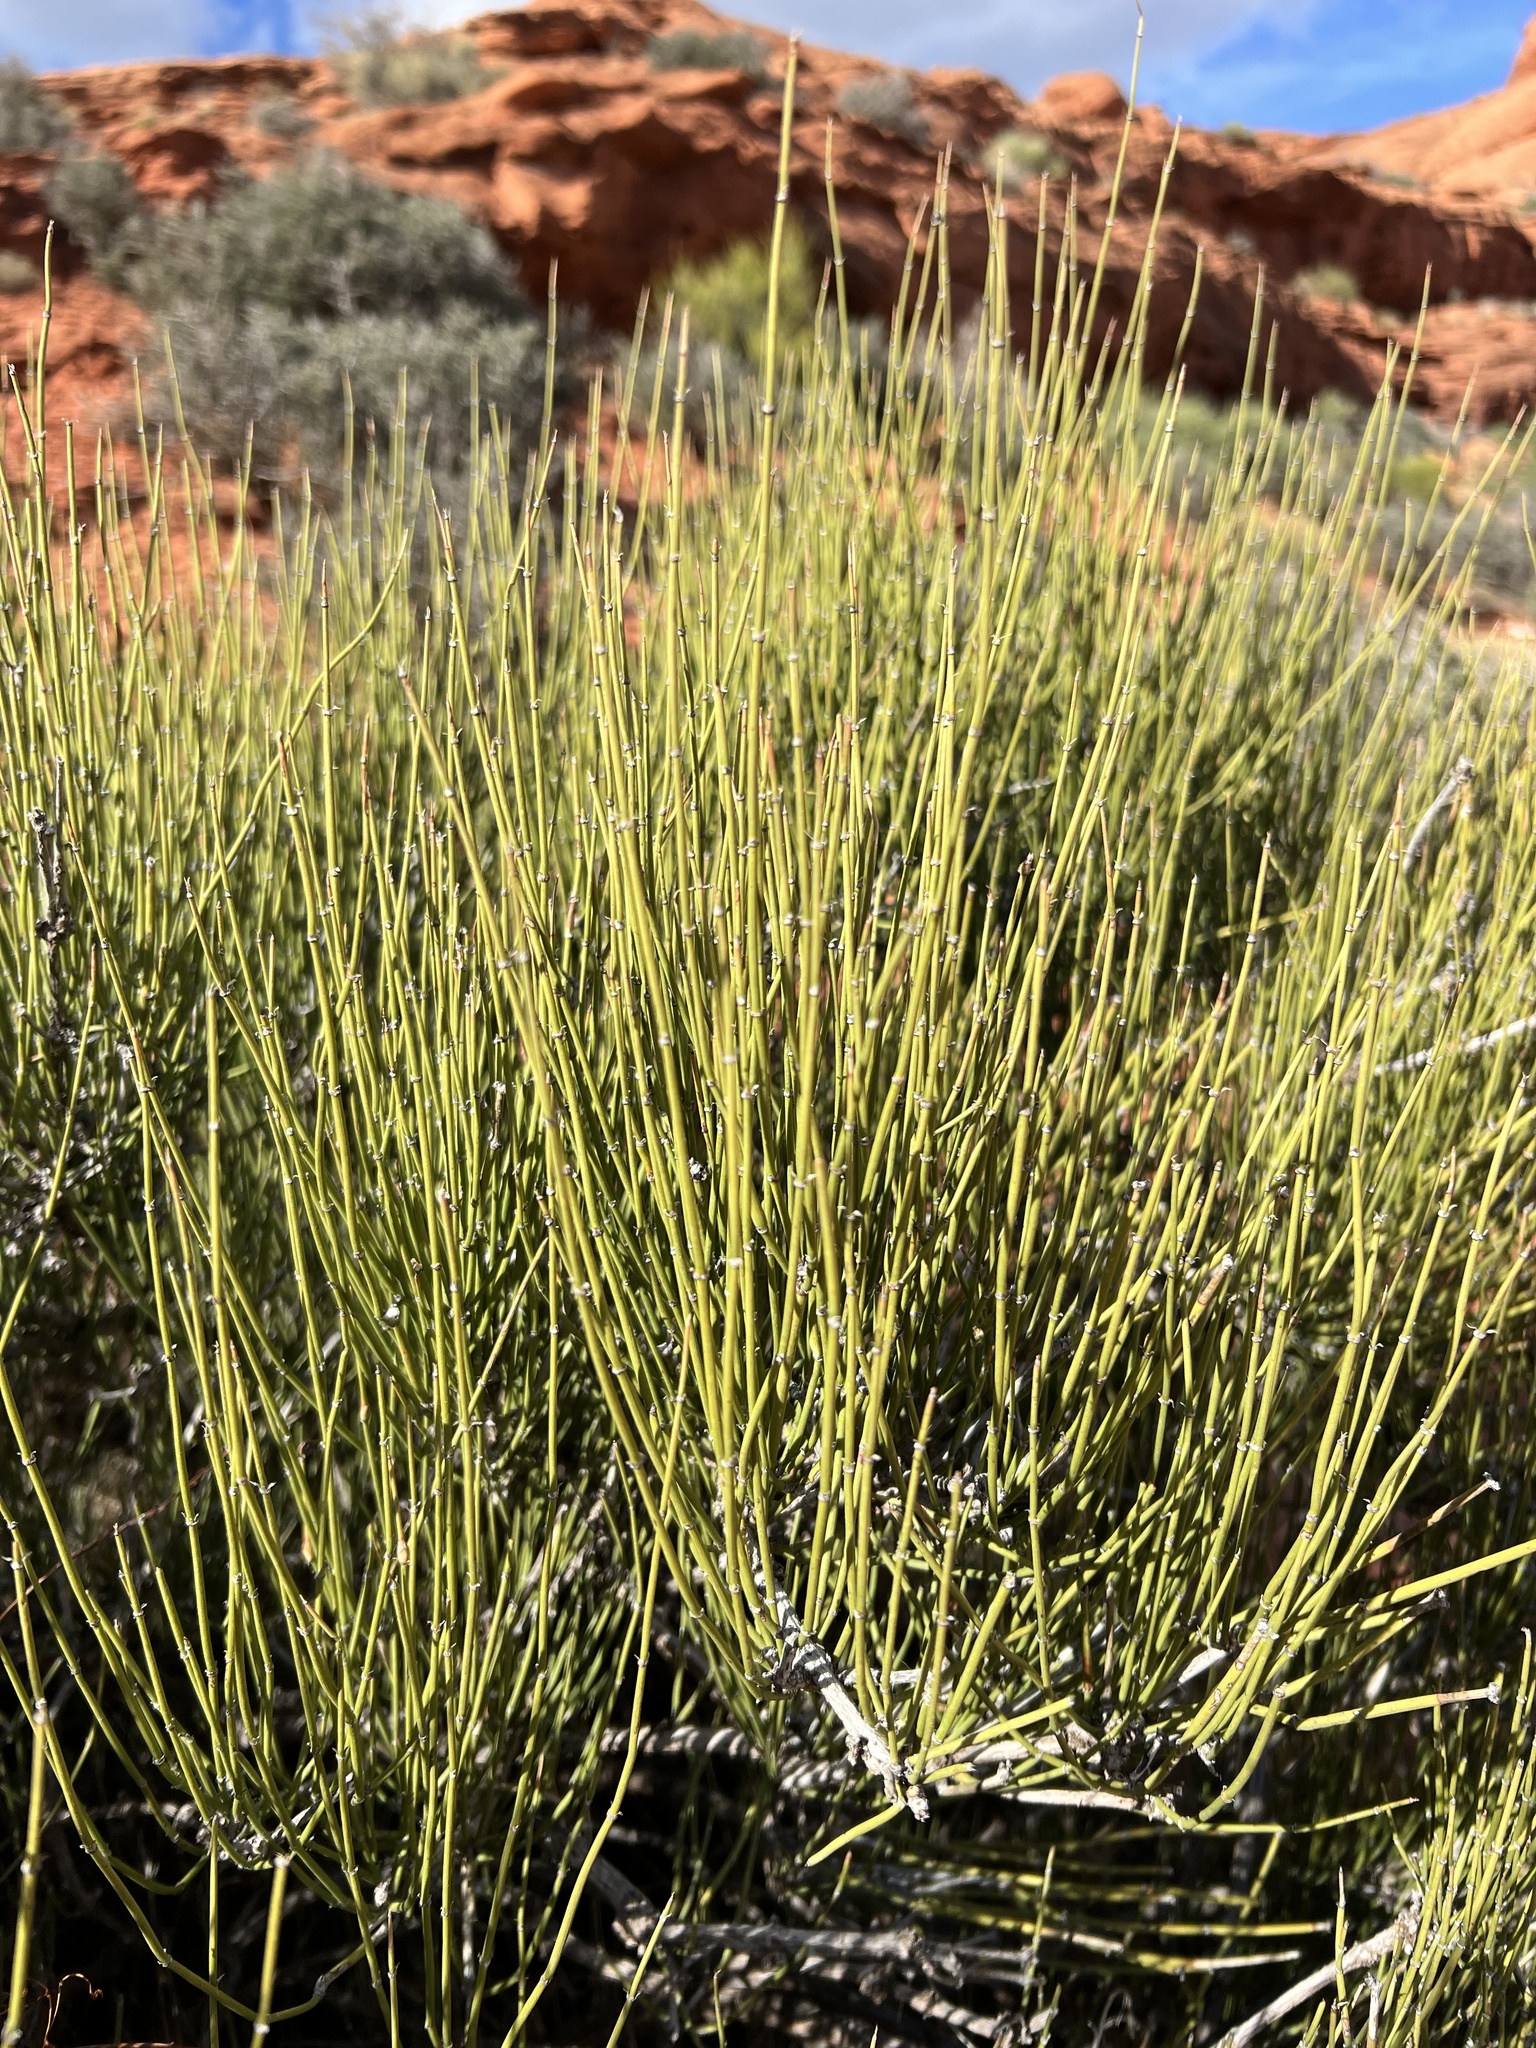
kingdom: Plantae
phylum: Tracheophyta
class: Gnetopsida
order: Ephedrales
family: Ephedraceae
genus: Ephedra
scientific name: Ephedra viridis
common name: Green ephedra
